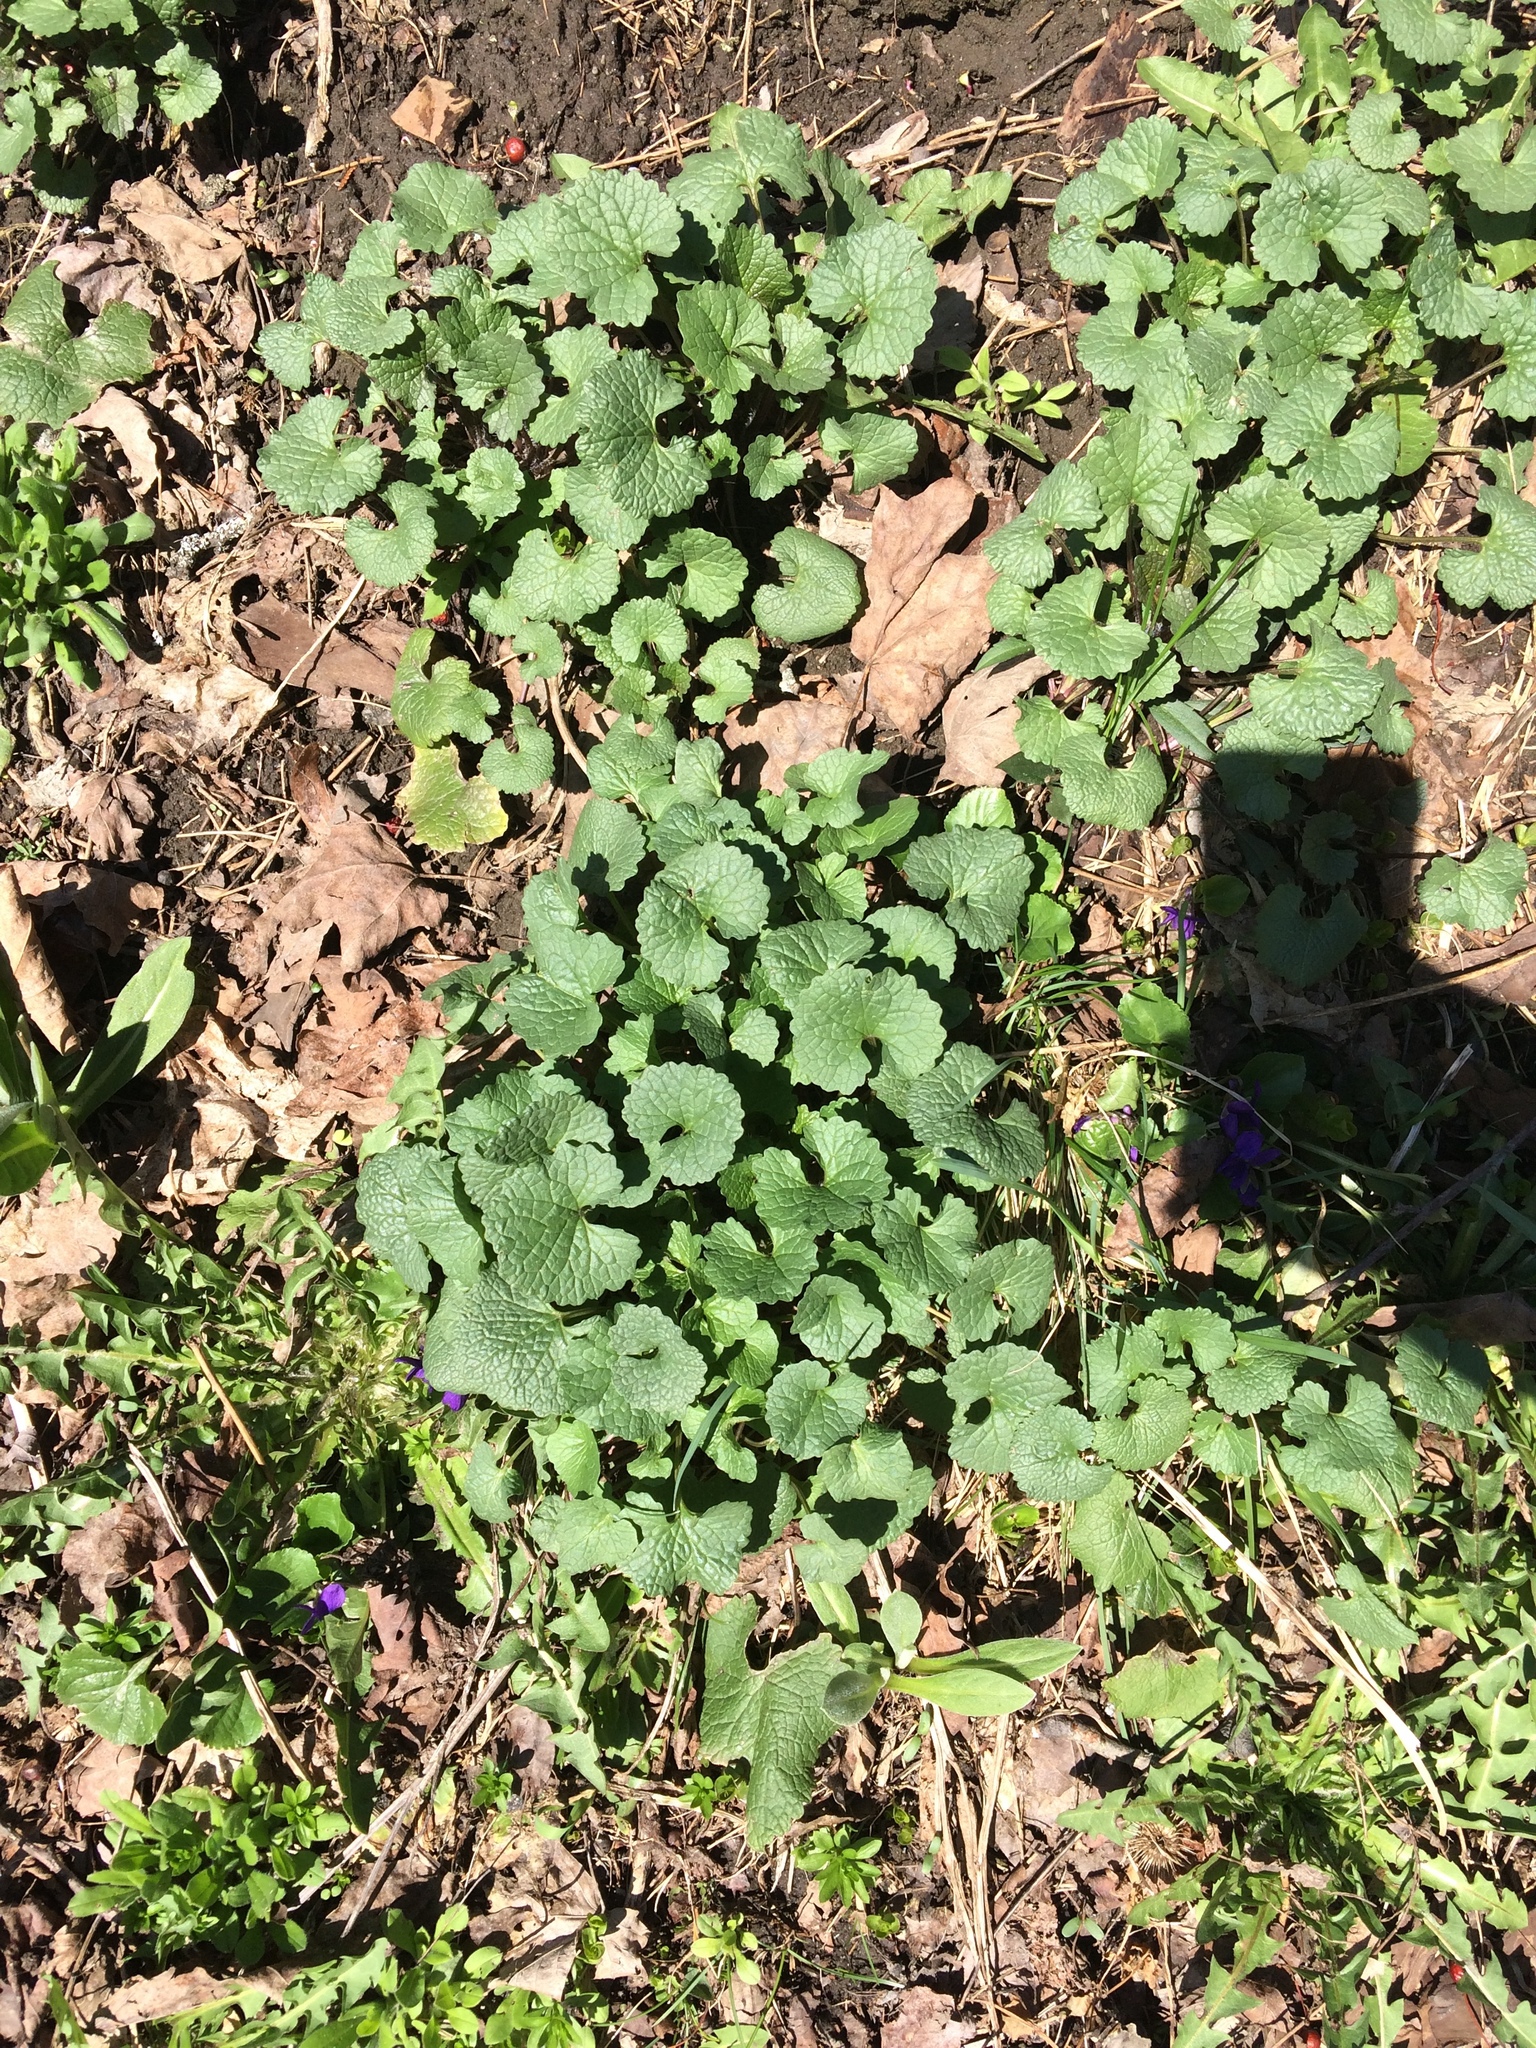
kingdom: Plantae
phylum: Tracheophyta
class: Magnoliopsida
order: Brassicales
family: Brassicaceae
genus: Alliaria
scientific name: Alliaria petiolata
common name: Garlic mustard
